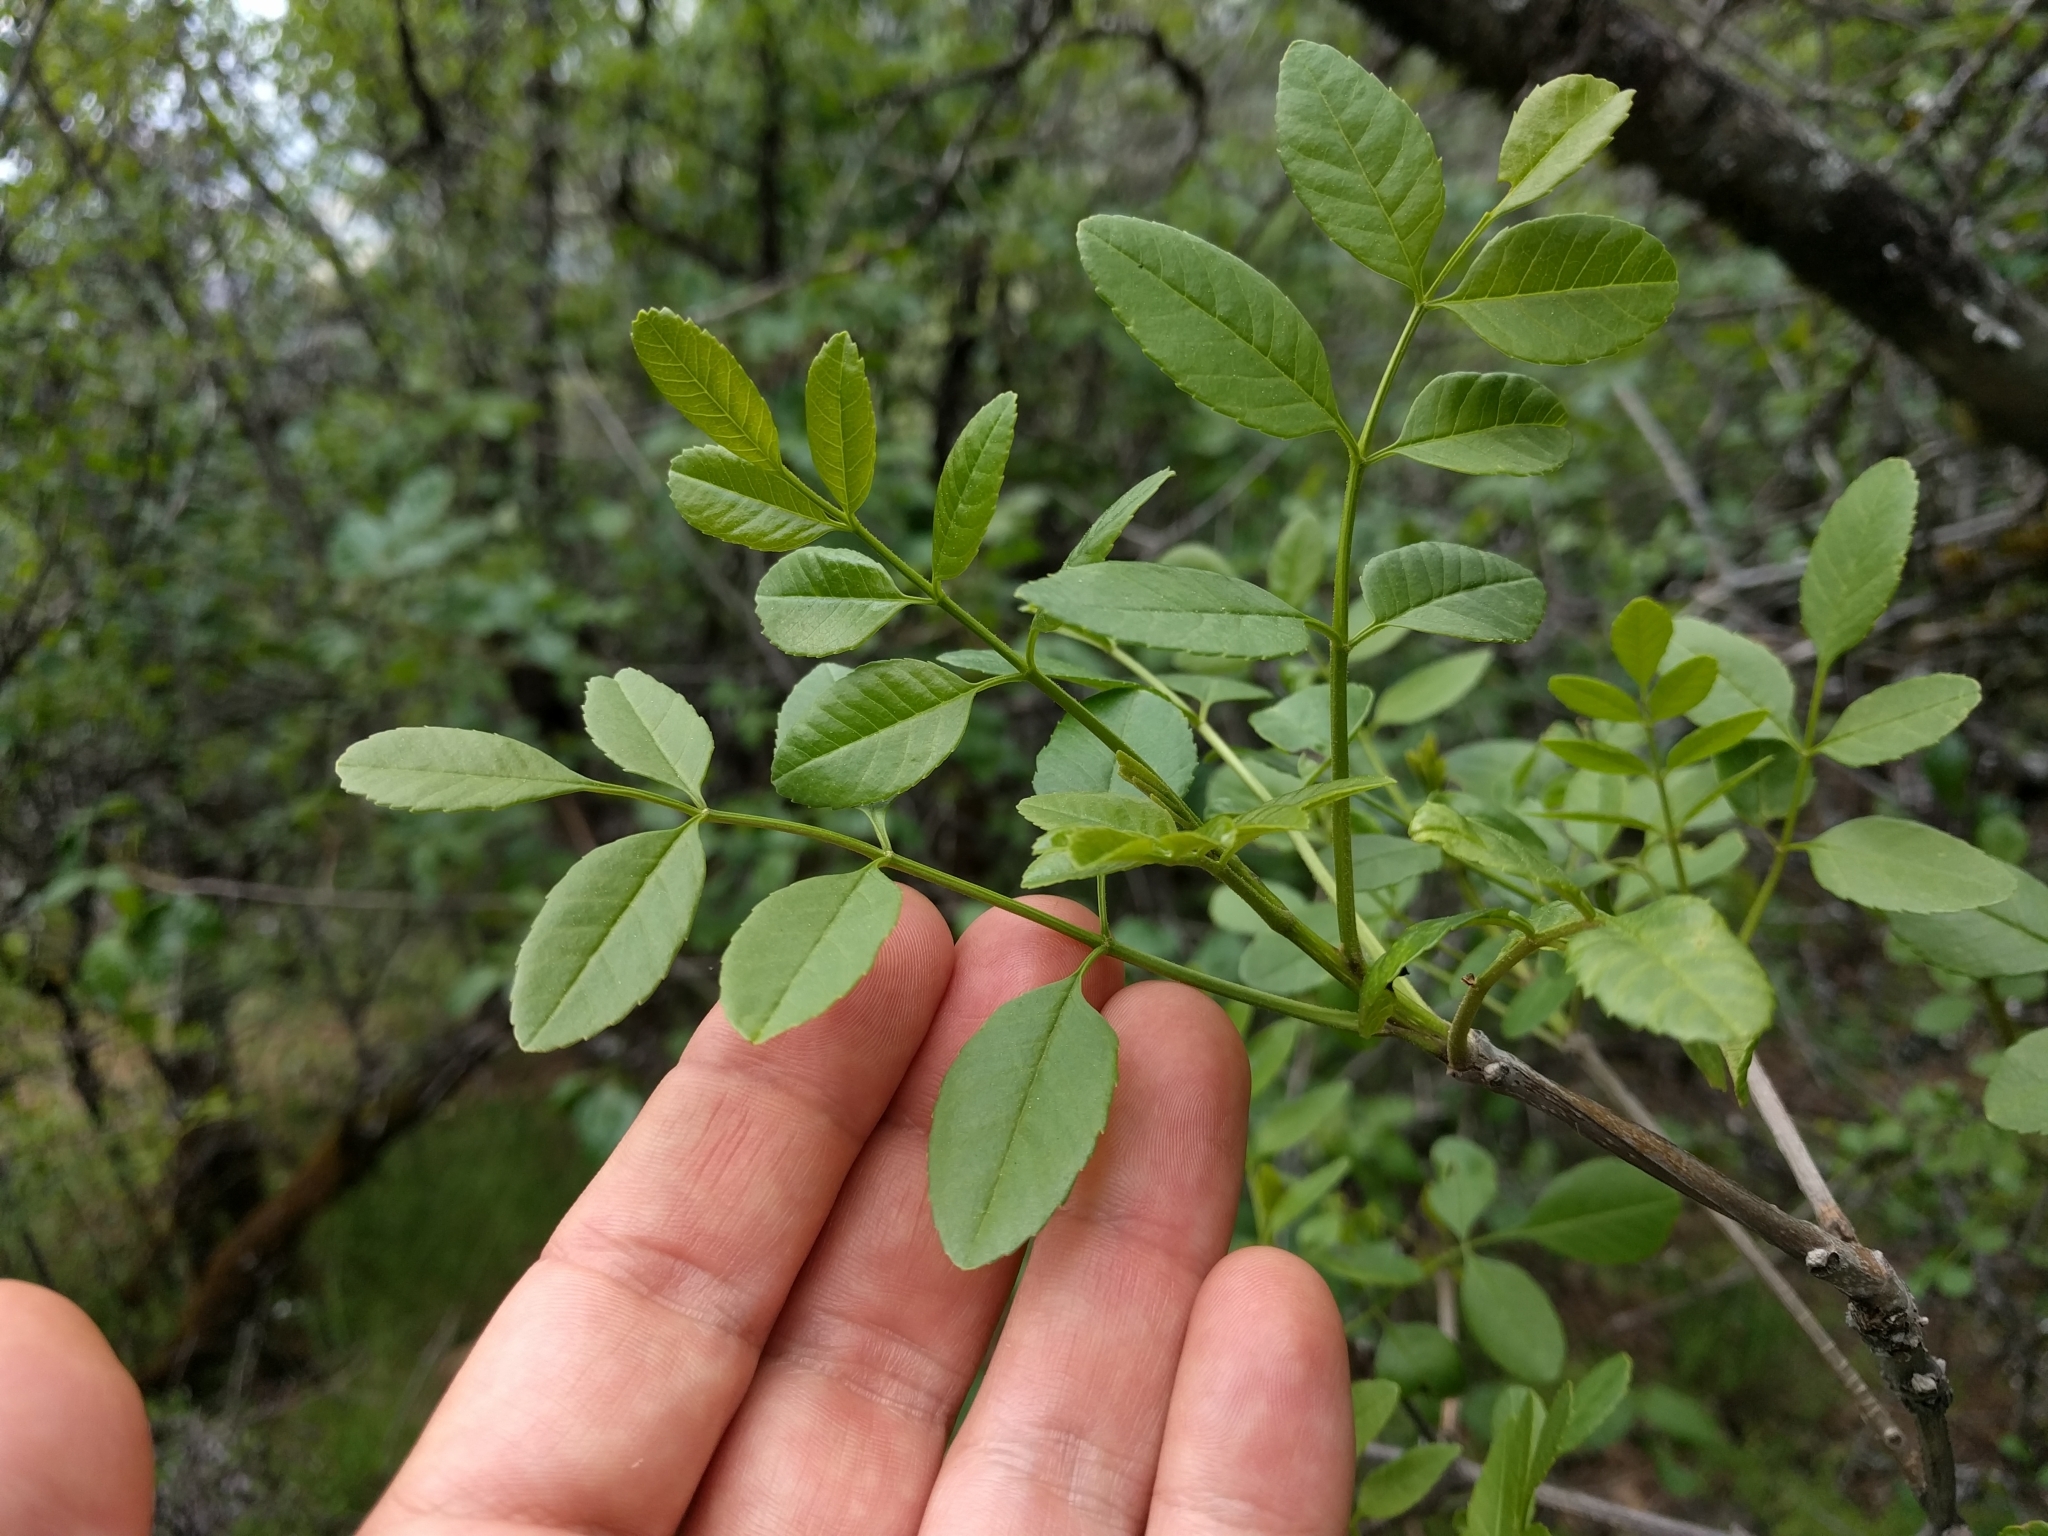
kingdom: Plantae
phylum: Tracheophyta
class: Magnoliopsida
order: Lamiales
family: Oleaceae
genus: Fraxinus
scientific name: Fraxinus dipetala
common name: California ash
